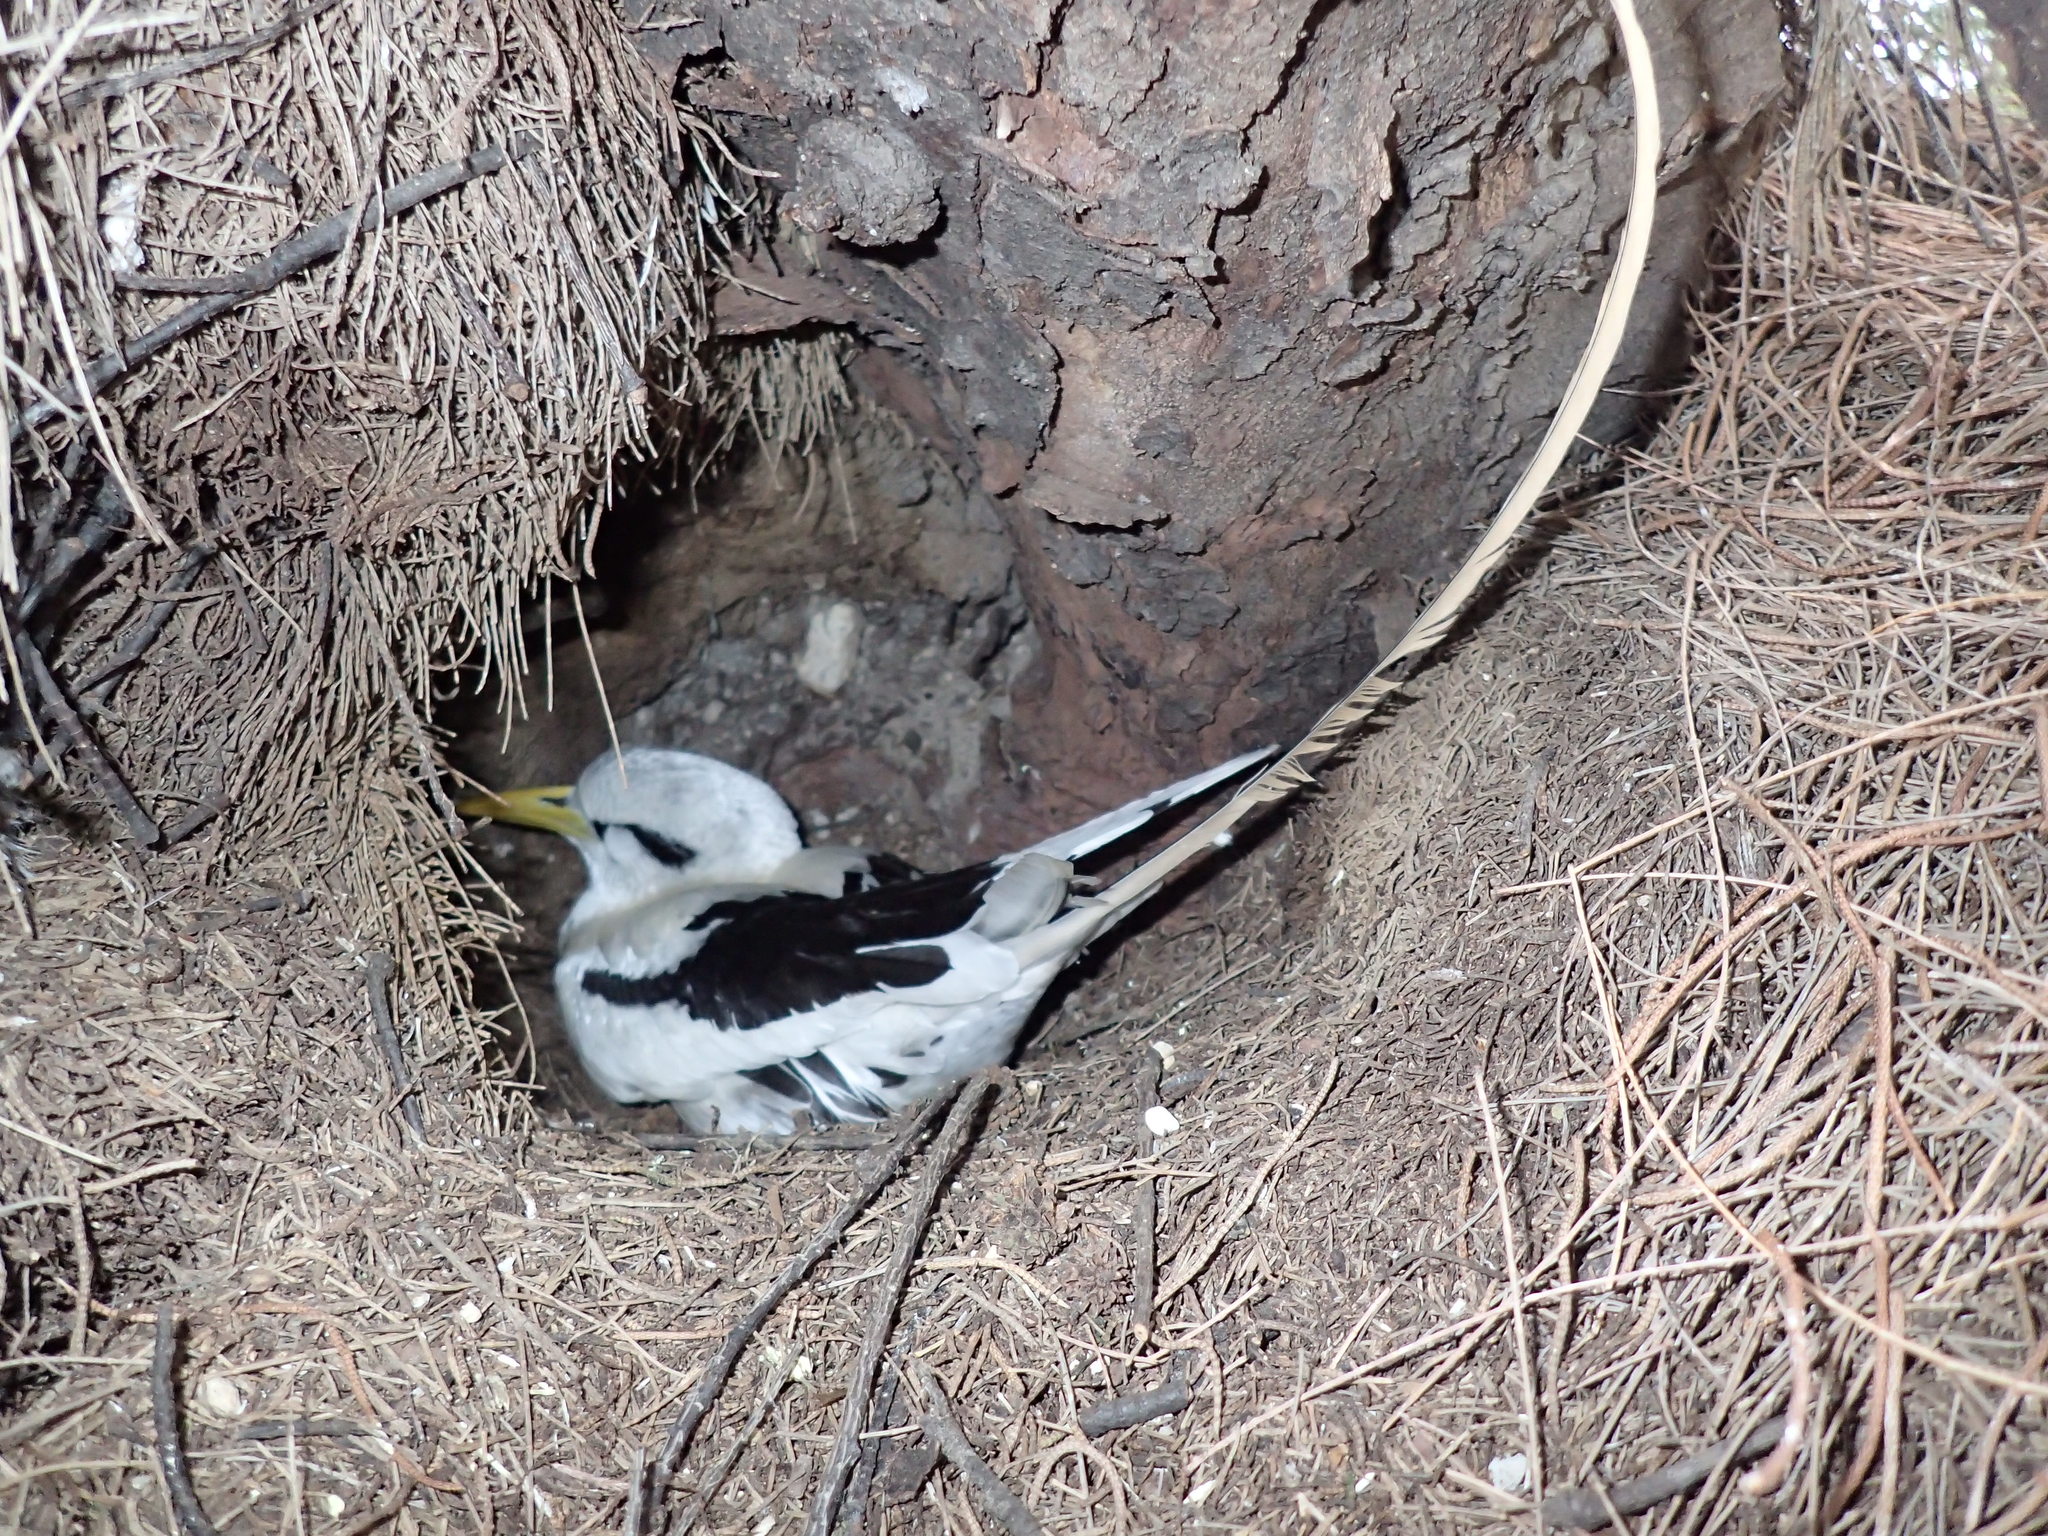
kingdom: Animalia
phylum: Chordata
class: Aves
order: Phaethontiformes
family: Phaethontidae
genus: Phaethon
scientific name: Phaethon lepturus
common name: White-tailed tropicbird
